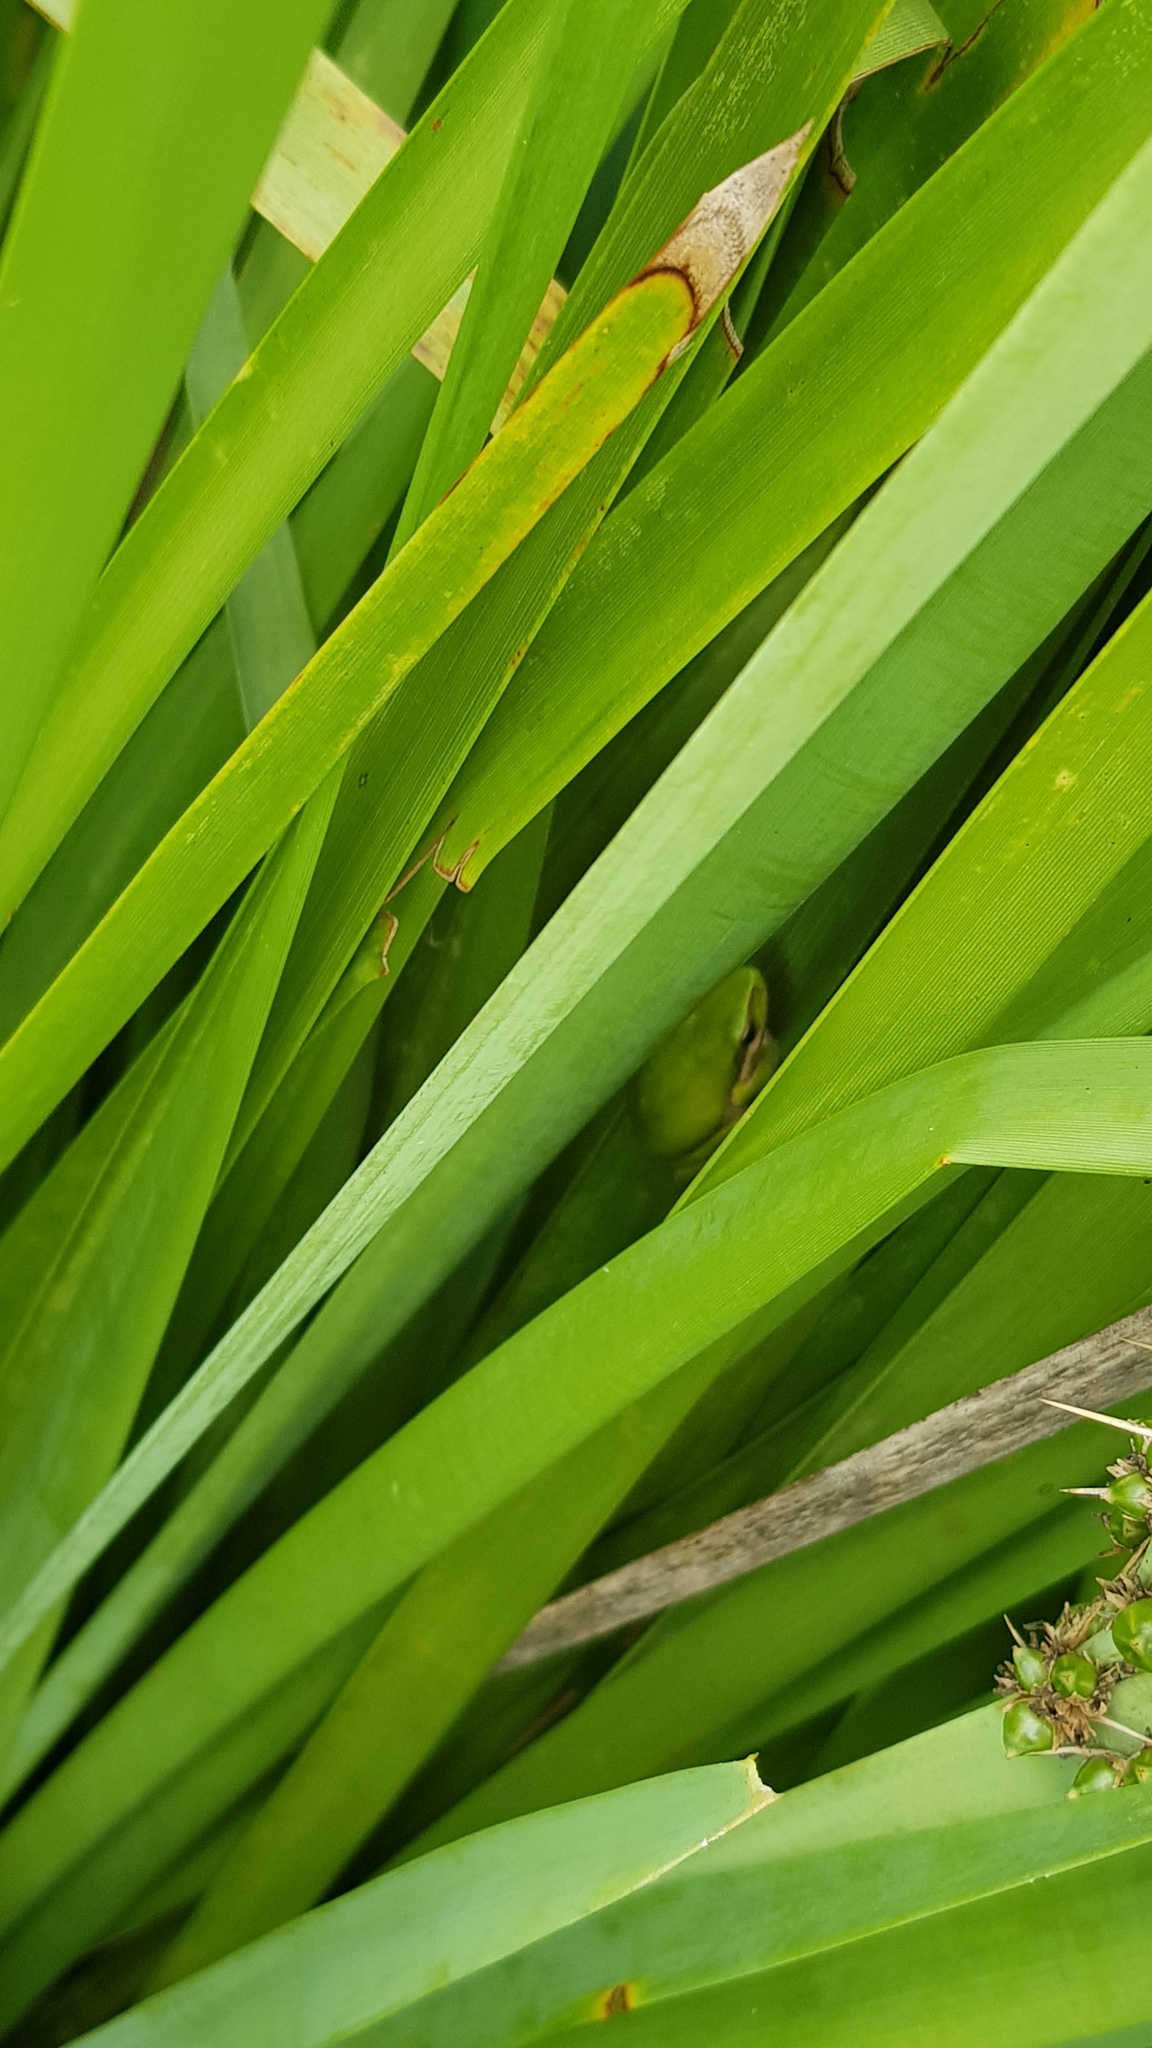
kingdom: Animalia
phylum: Chordata
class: Amphibia
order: Anura
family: Pelodryadidae
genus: Litoria
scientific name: Litoria fallax
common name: Eastern dwarf treefrog
